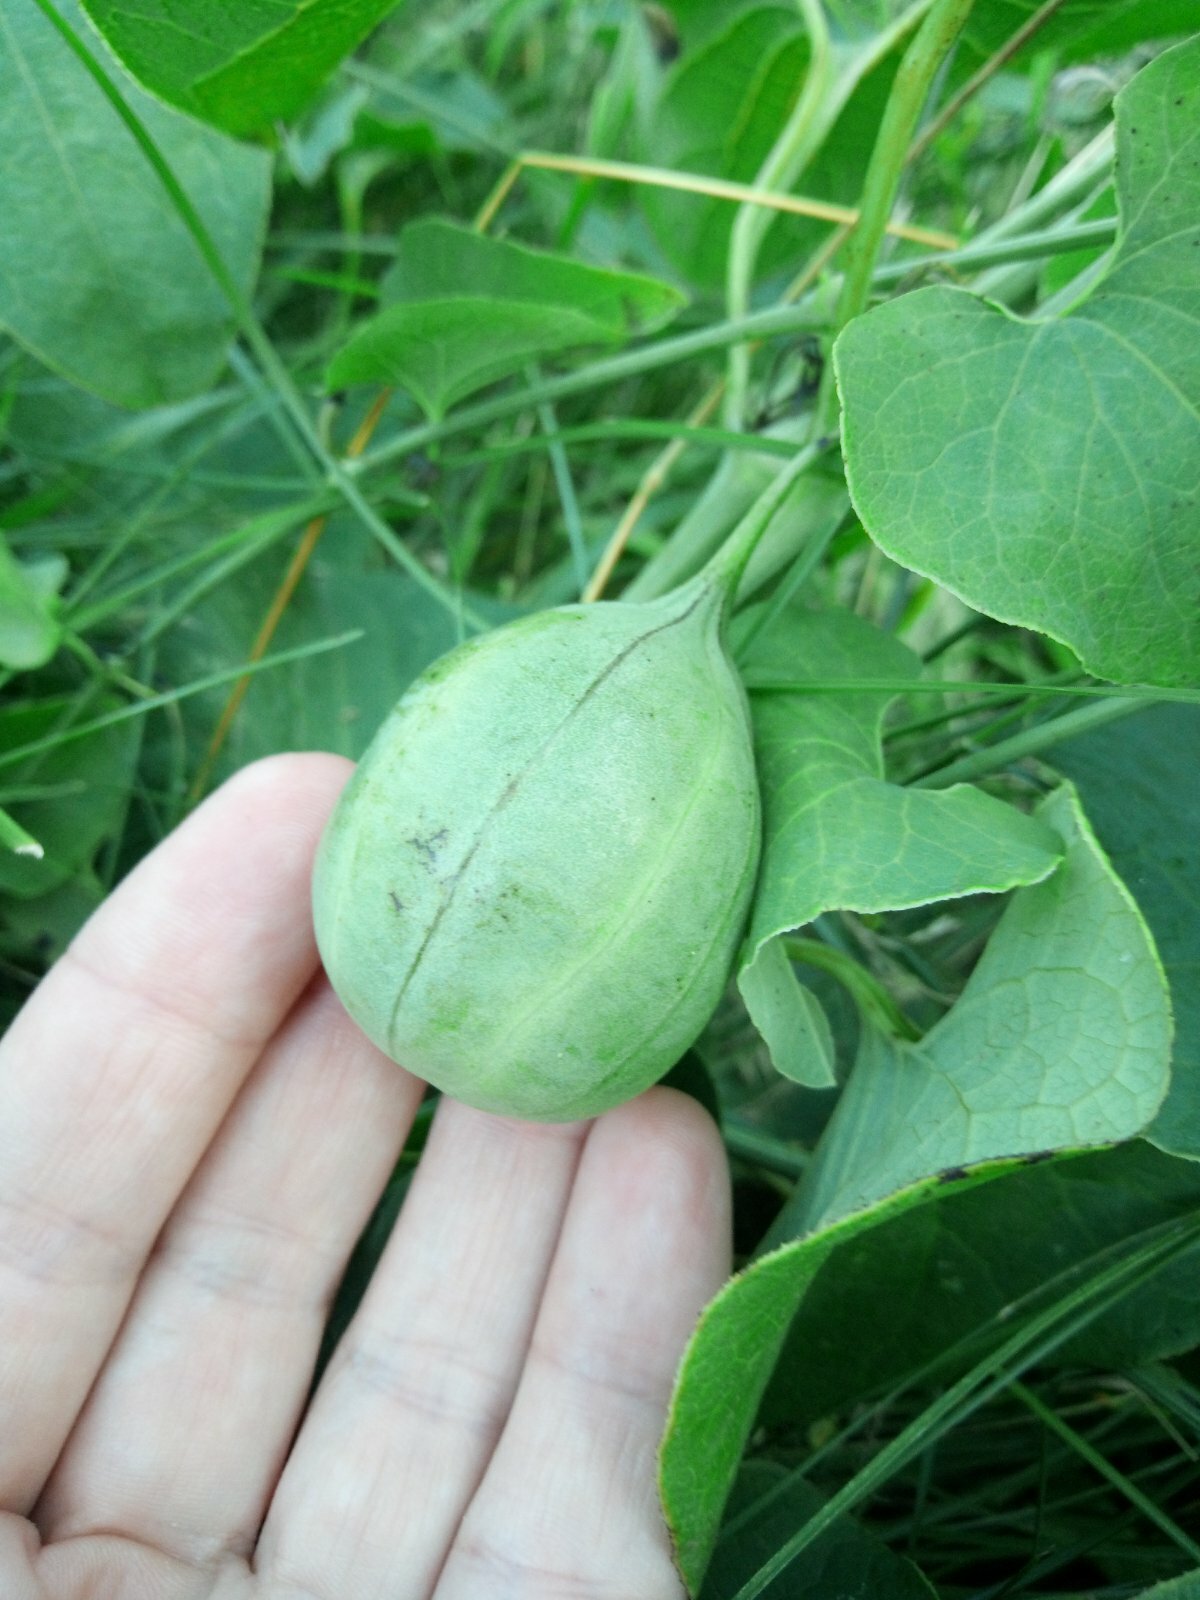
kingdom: Plantae
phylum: Tracheophyta
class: Magnoliopsida
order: Piperales
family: Aristolochiaceae
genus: Aristolochia
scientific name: Aristolochia clematitis
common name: Birthwort
